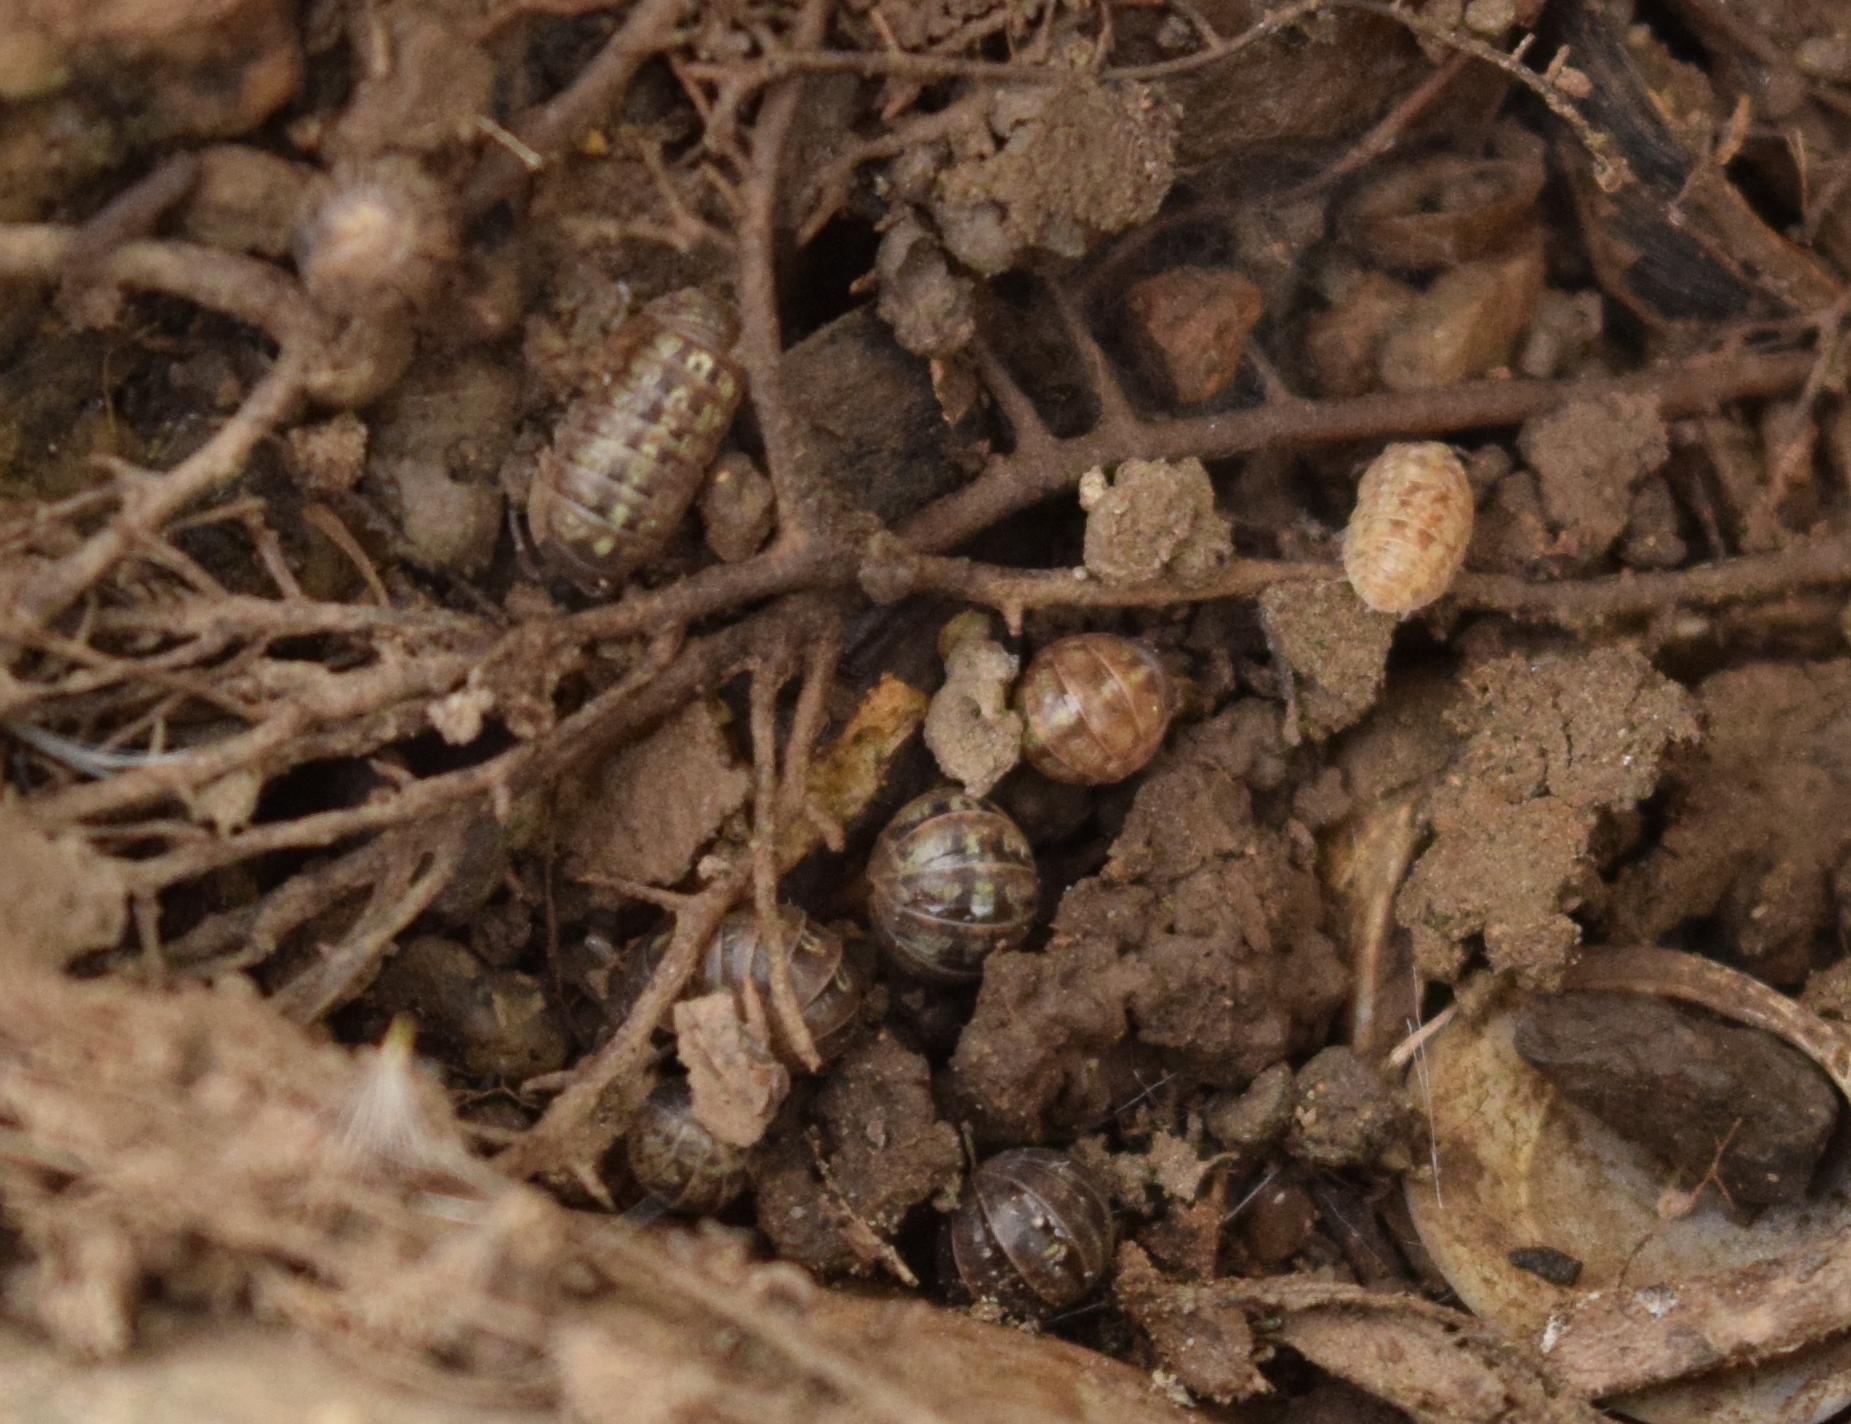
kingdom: Animalia
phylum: Arthropoda
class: Malacostraca
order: Isopoda
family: Armadillidiidae
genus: Armadillidium
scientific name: Armadillidium vulgare
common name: Common pill woodlouse
